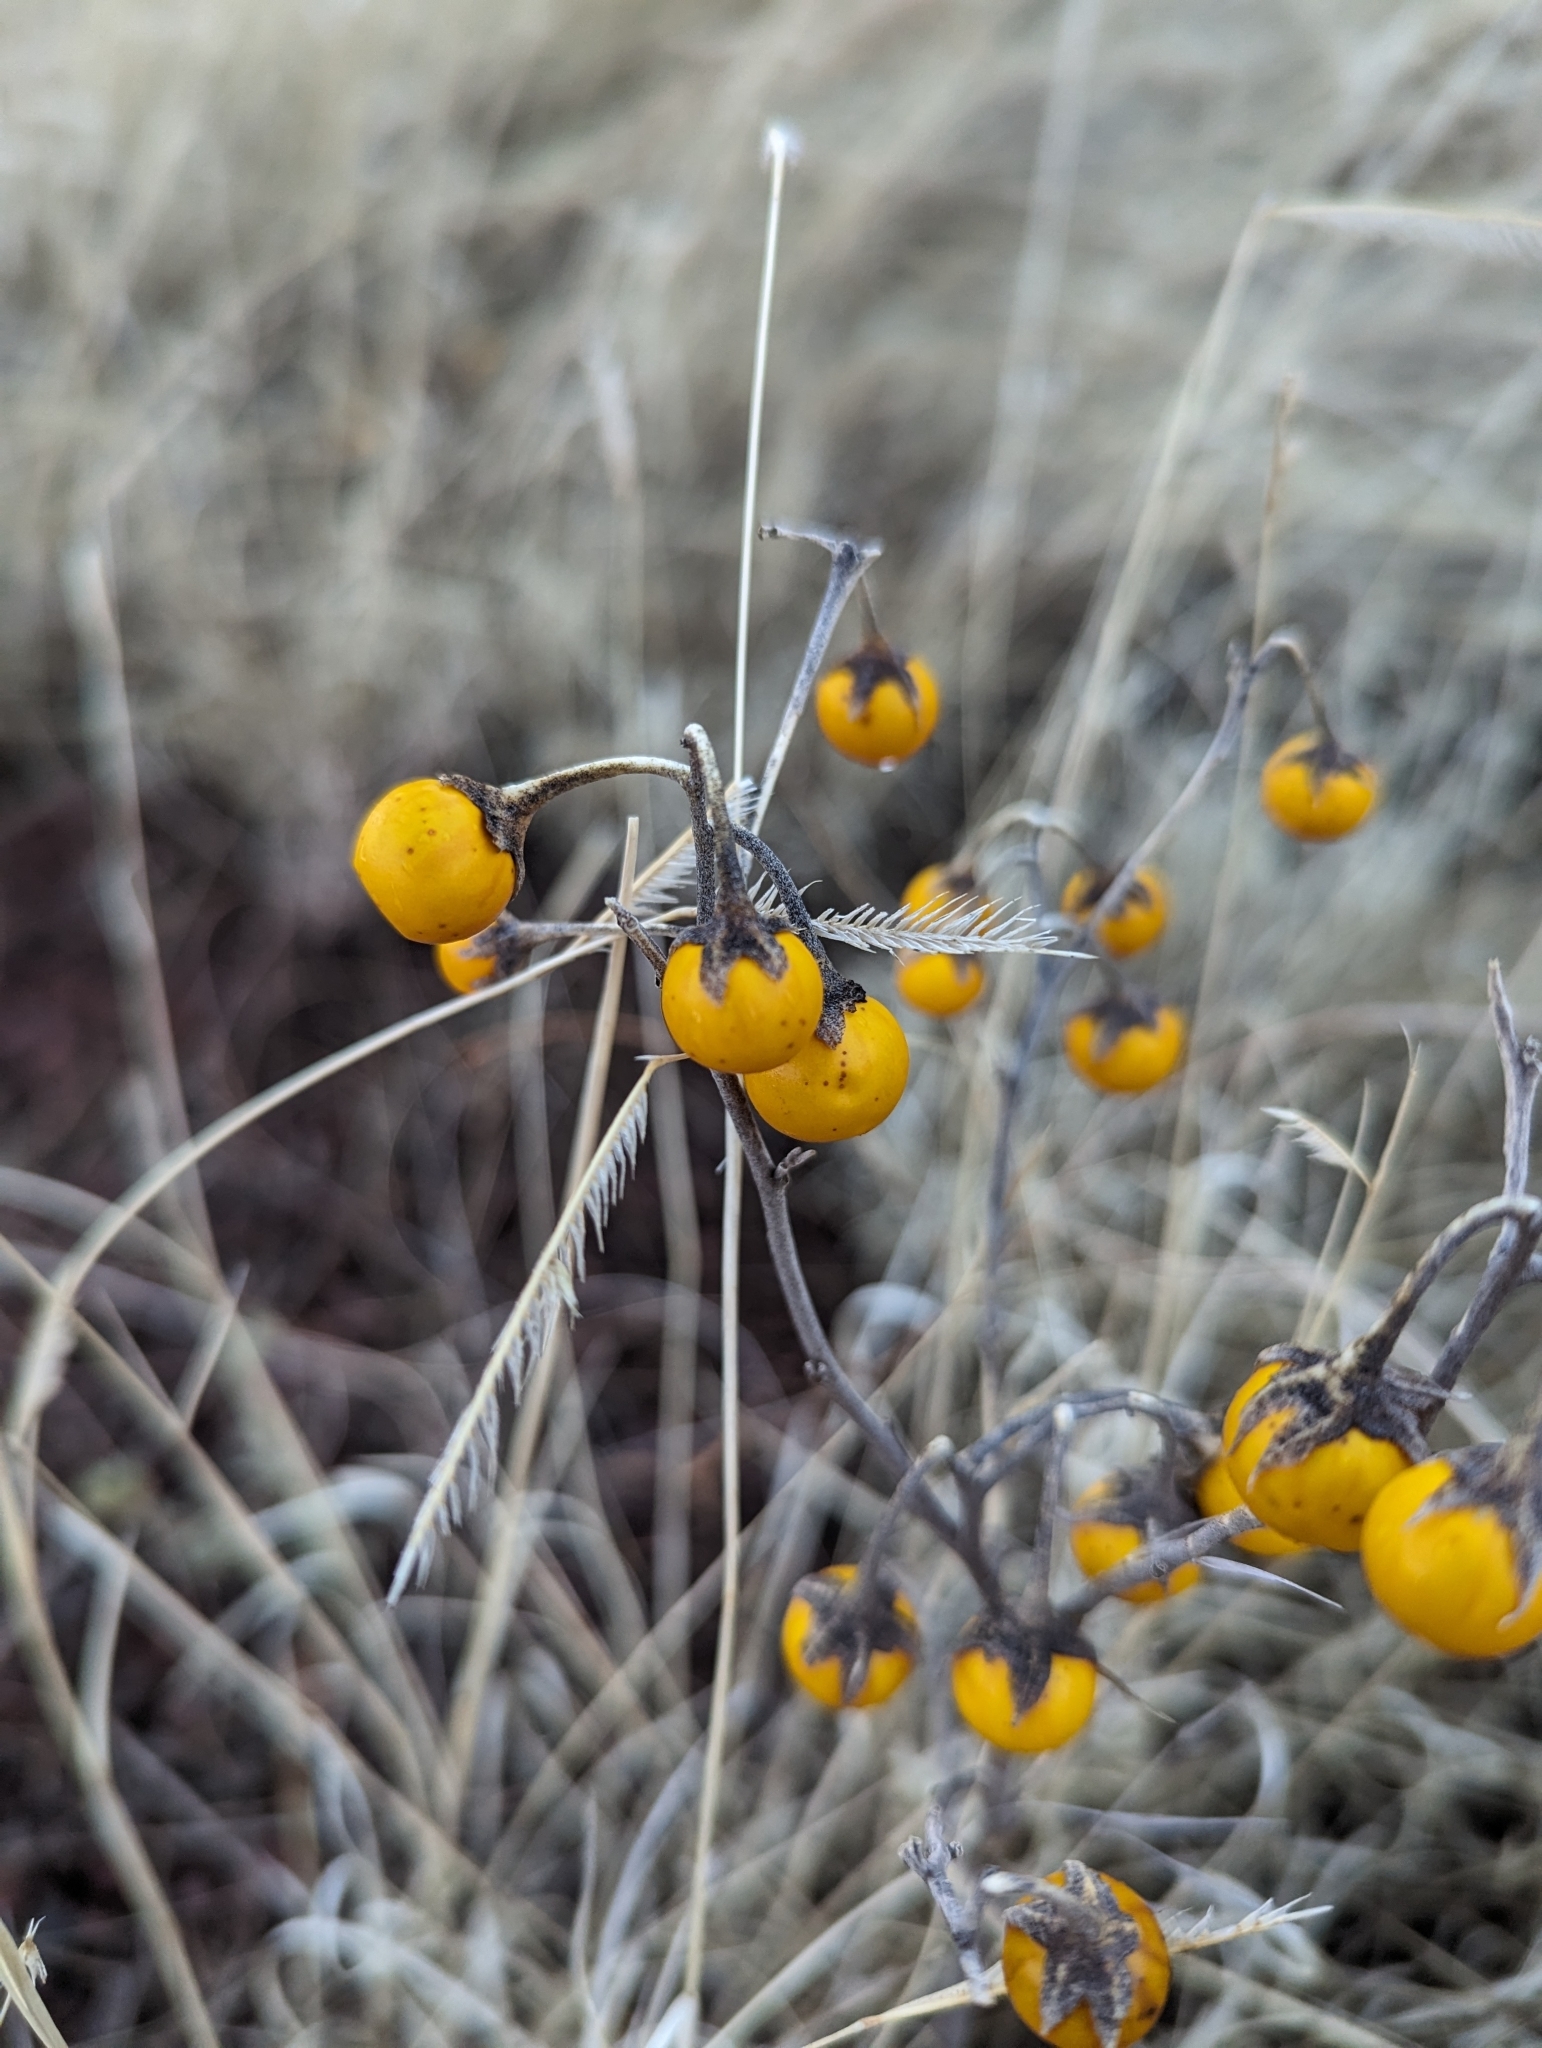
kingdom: Plantae
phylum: Tracheophyta
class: Magnoliopsida
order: Solanales
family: Solanaceae
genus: Solanum
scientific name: Solanum elaeagnifolium
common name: Silverleaf nightshade
